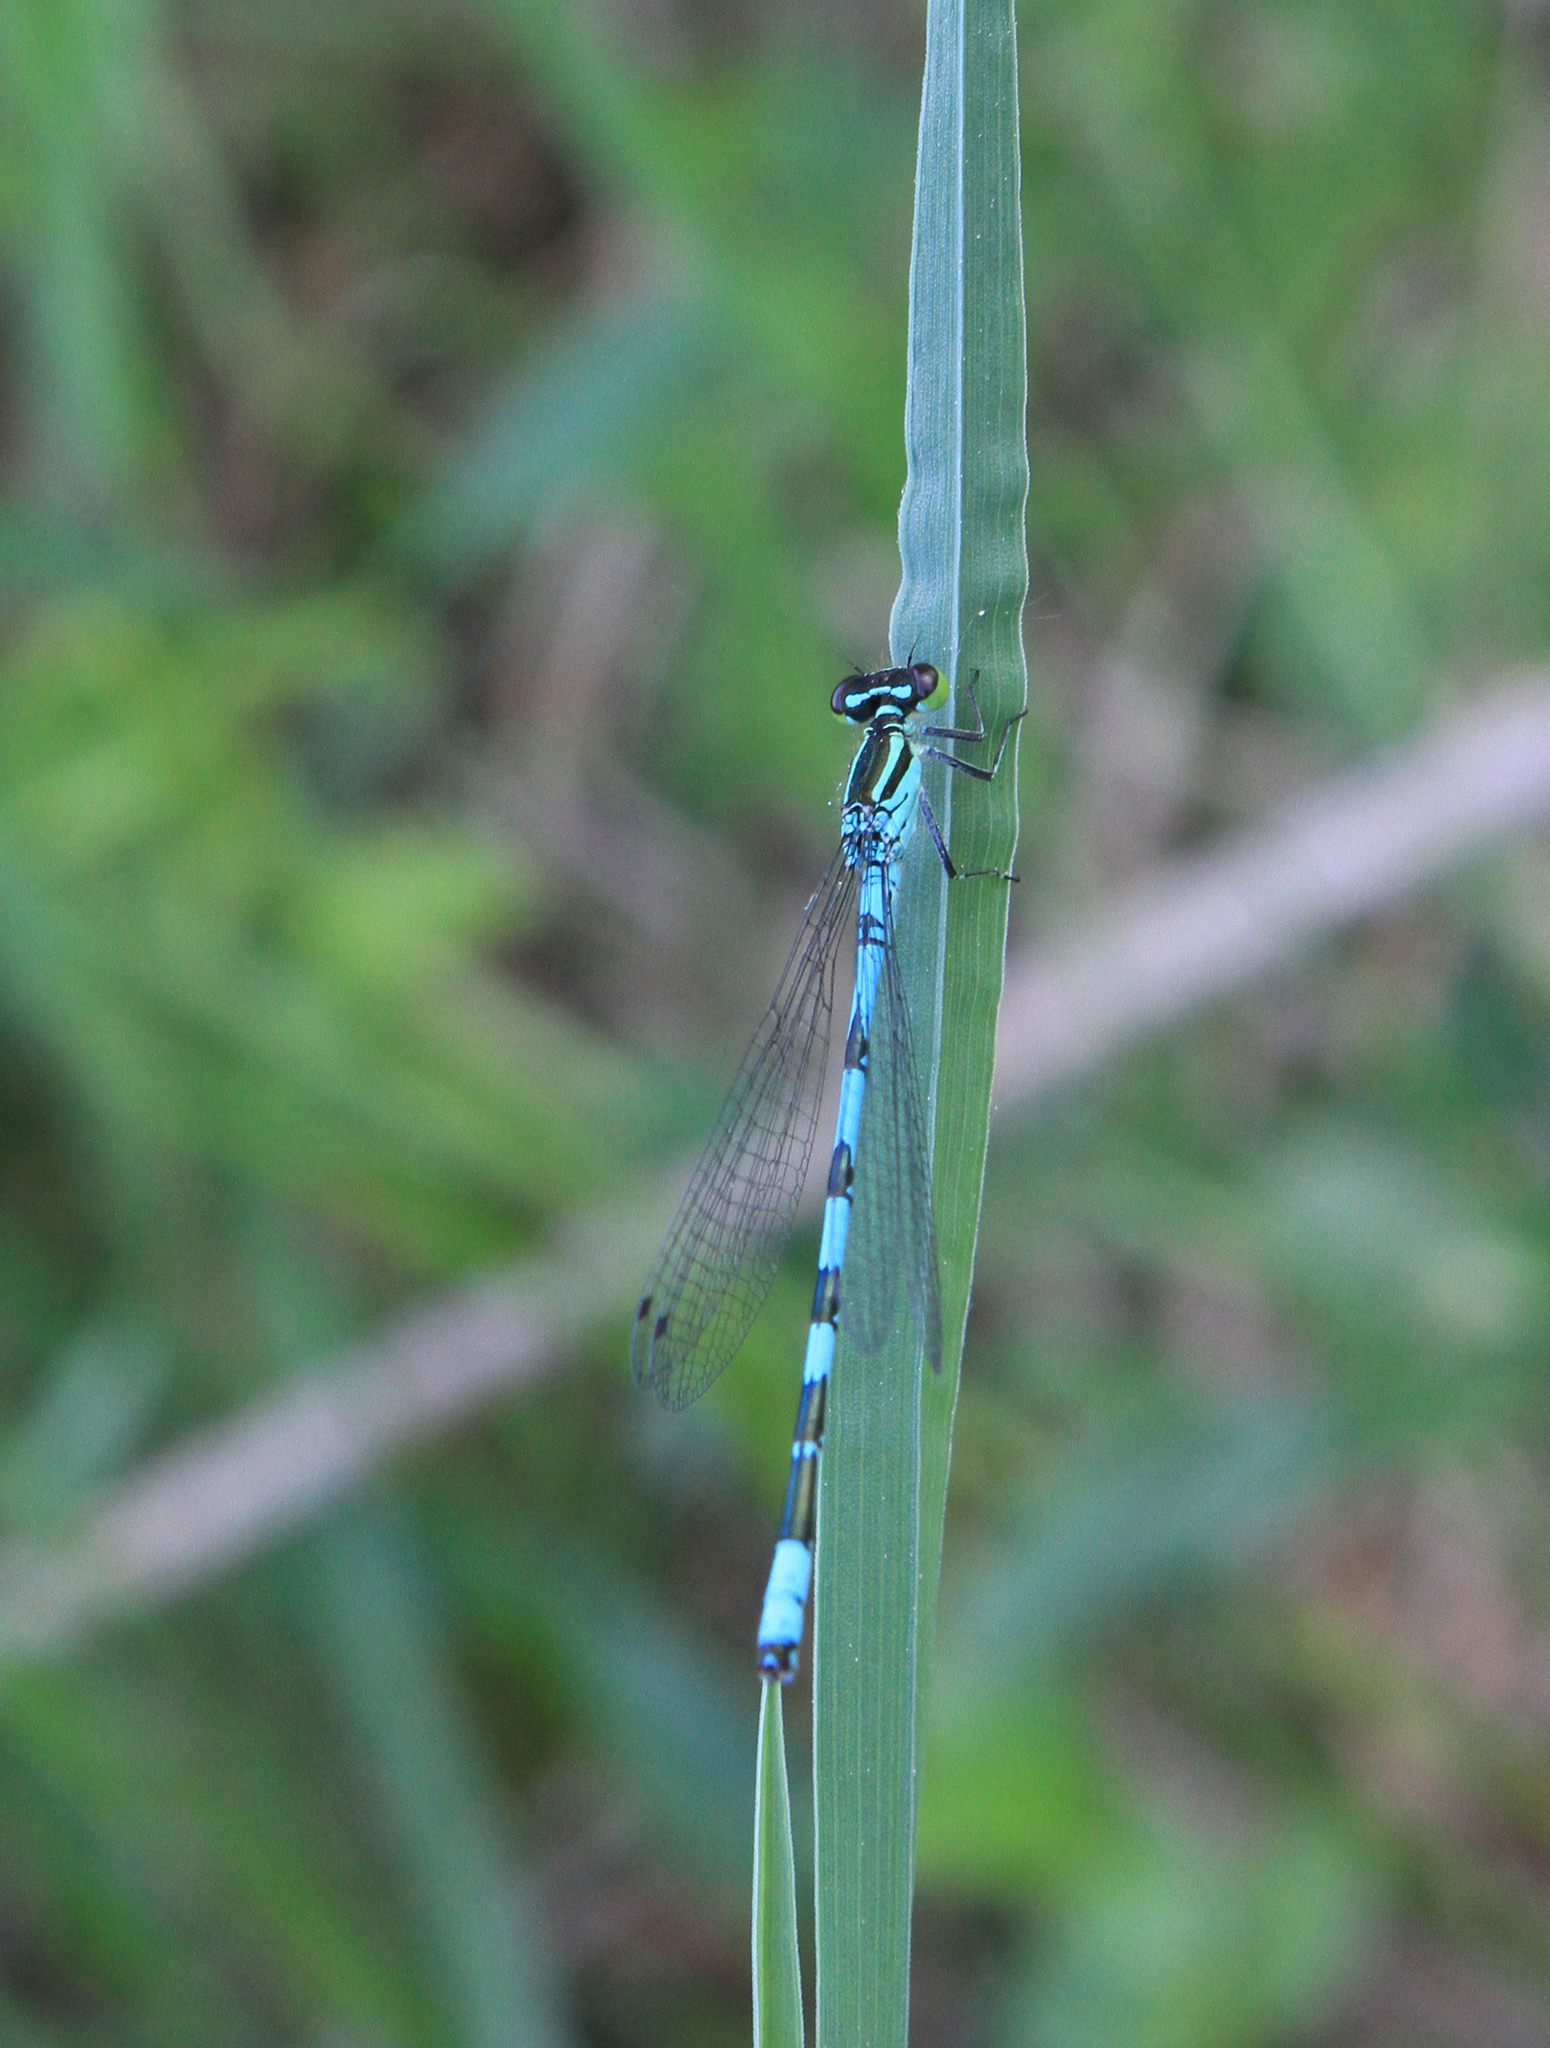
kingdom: Animalia
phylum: Arthropoda
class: Insecta
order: Odonata
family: Coenagrionidae
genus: Coenagrion
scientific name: Coenagrion hastulatum
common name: Spearhead bluet
